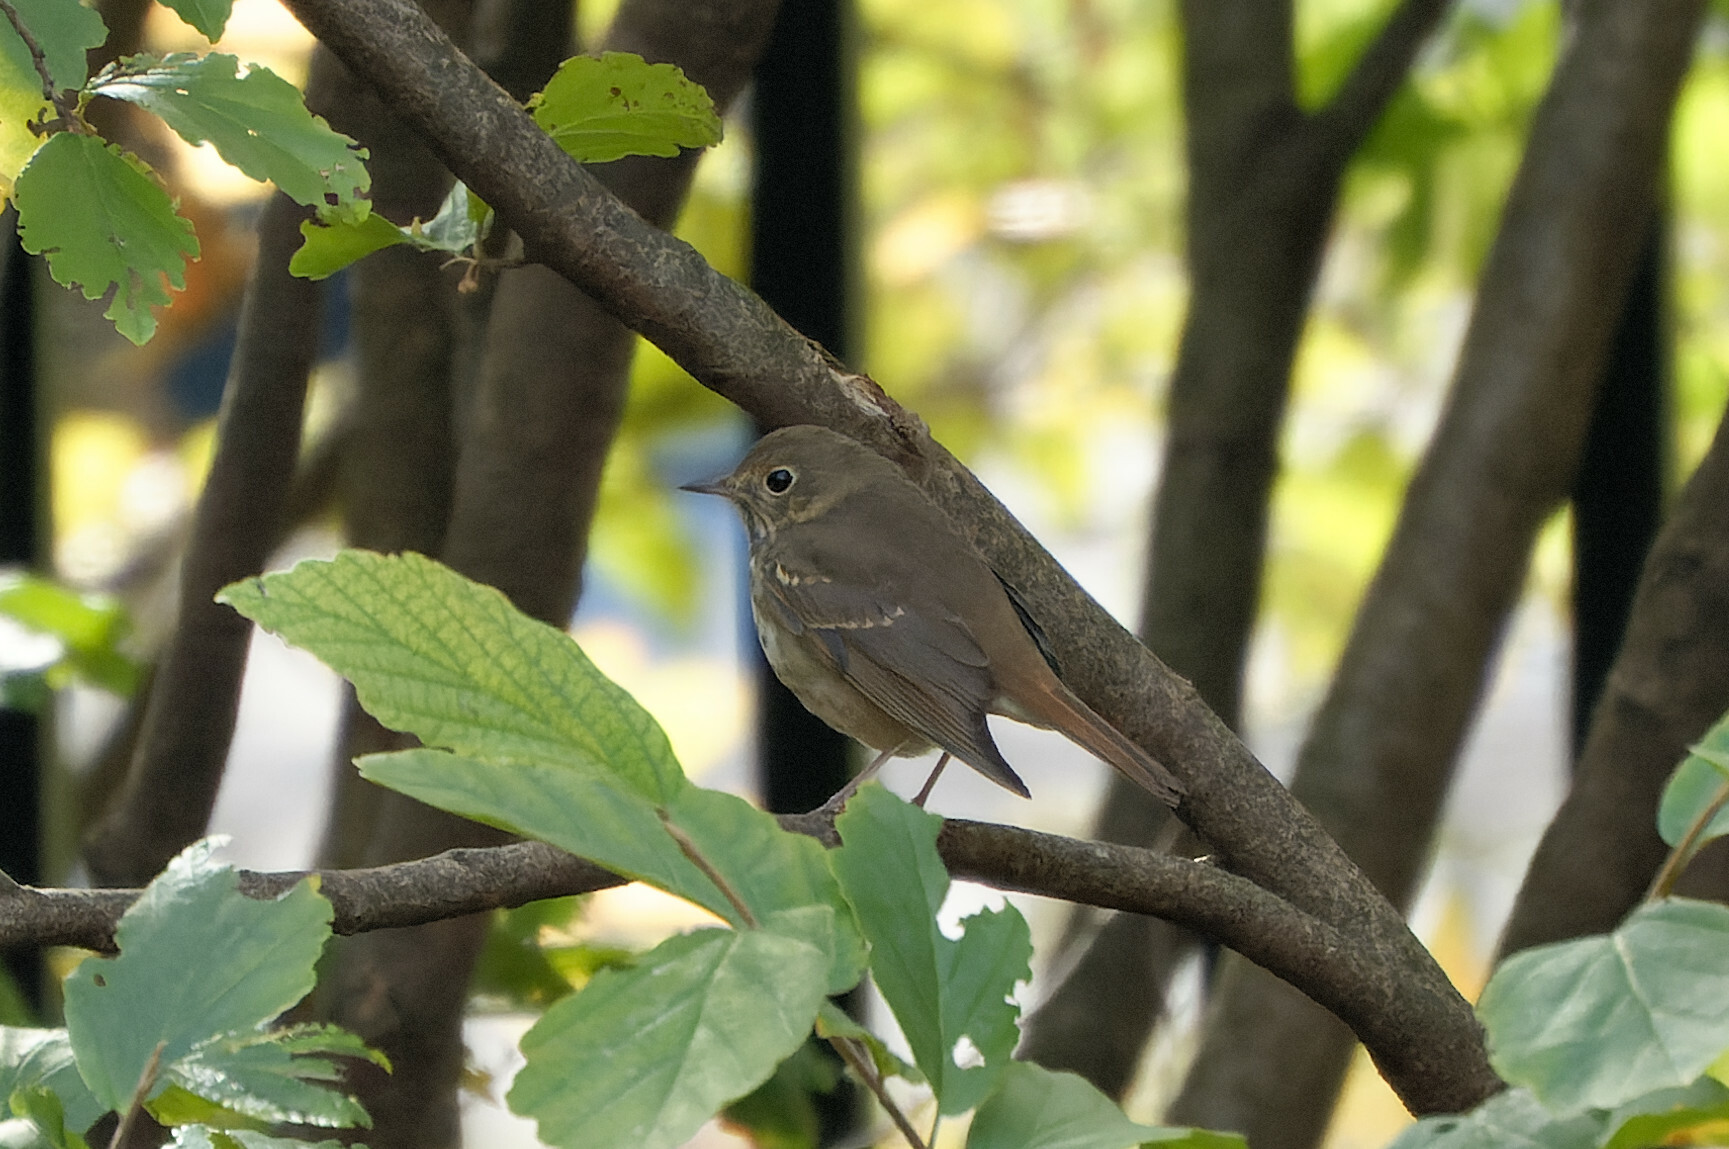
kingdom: Animalia
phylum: Chordata
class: Aves
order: Passeriformes
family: Turdidae
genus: Catharus
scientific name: Catharus guttatus
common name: Hermit thrush
